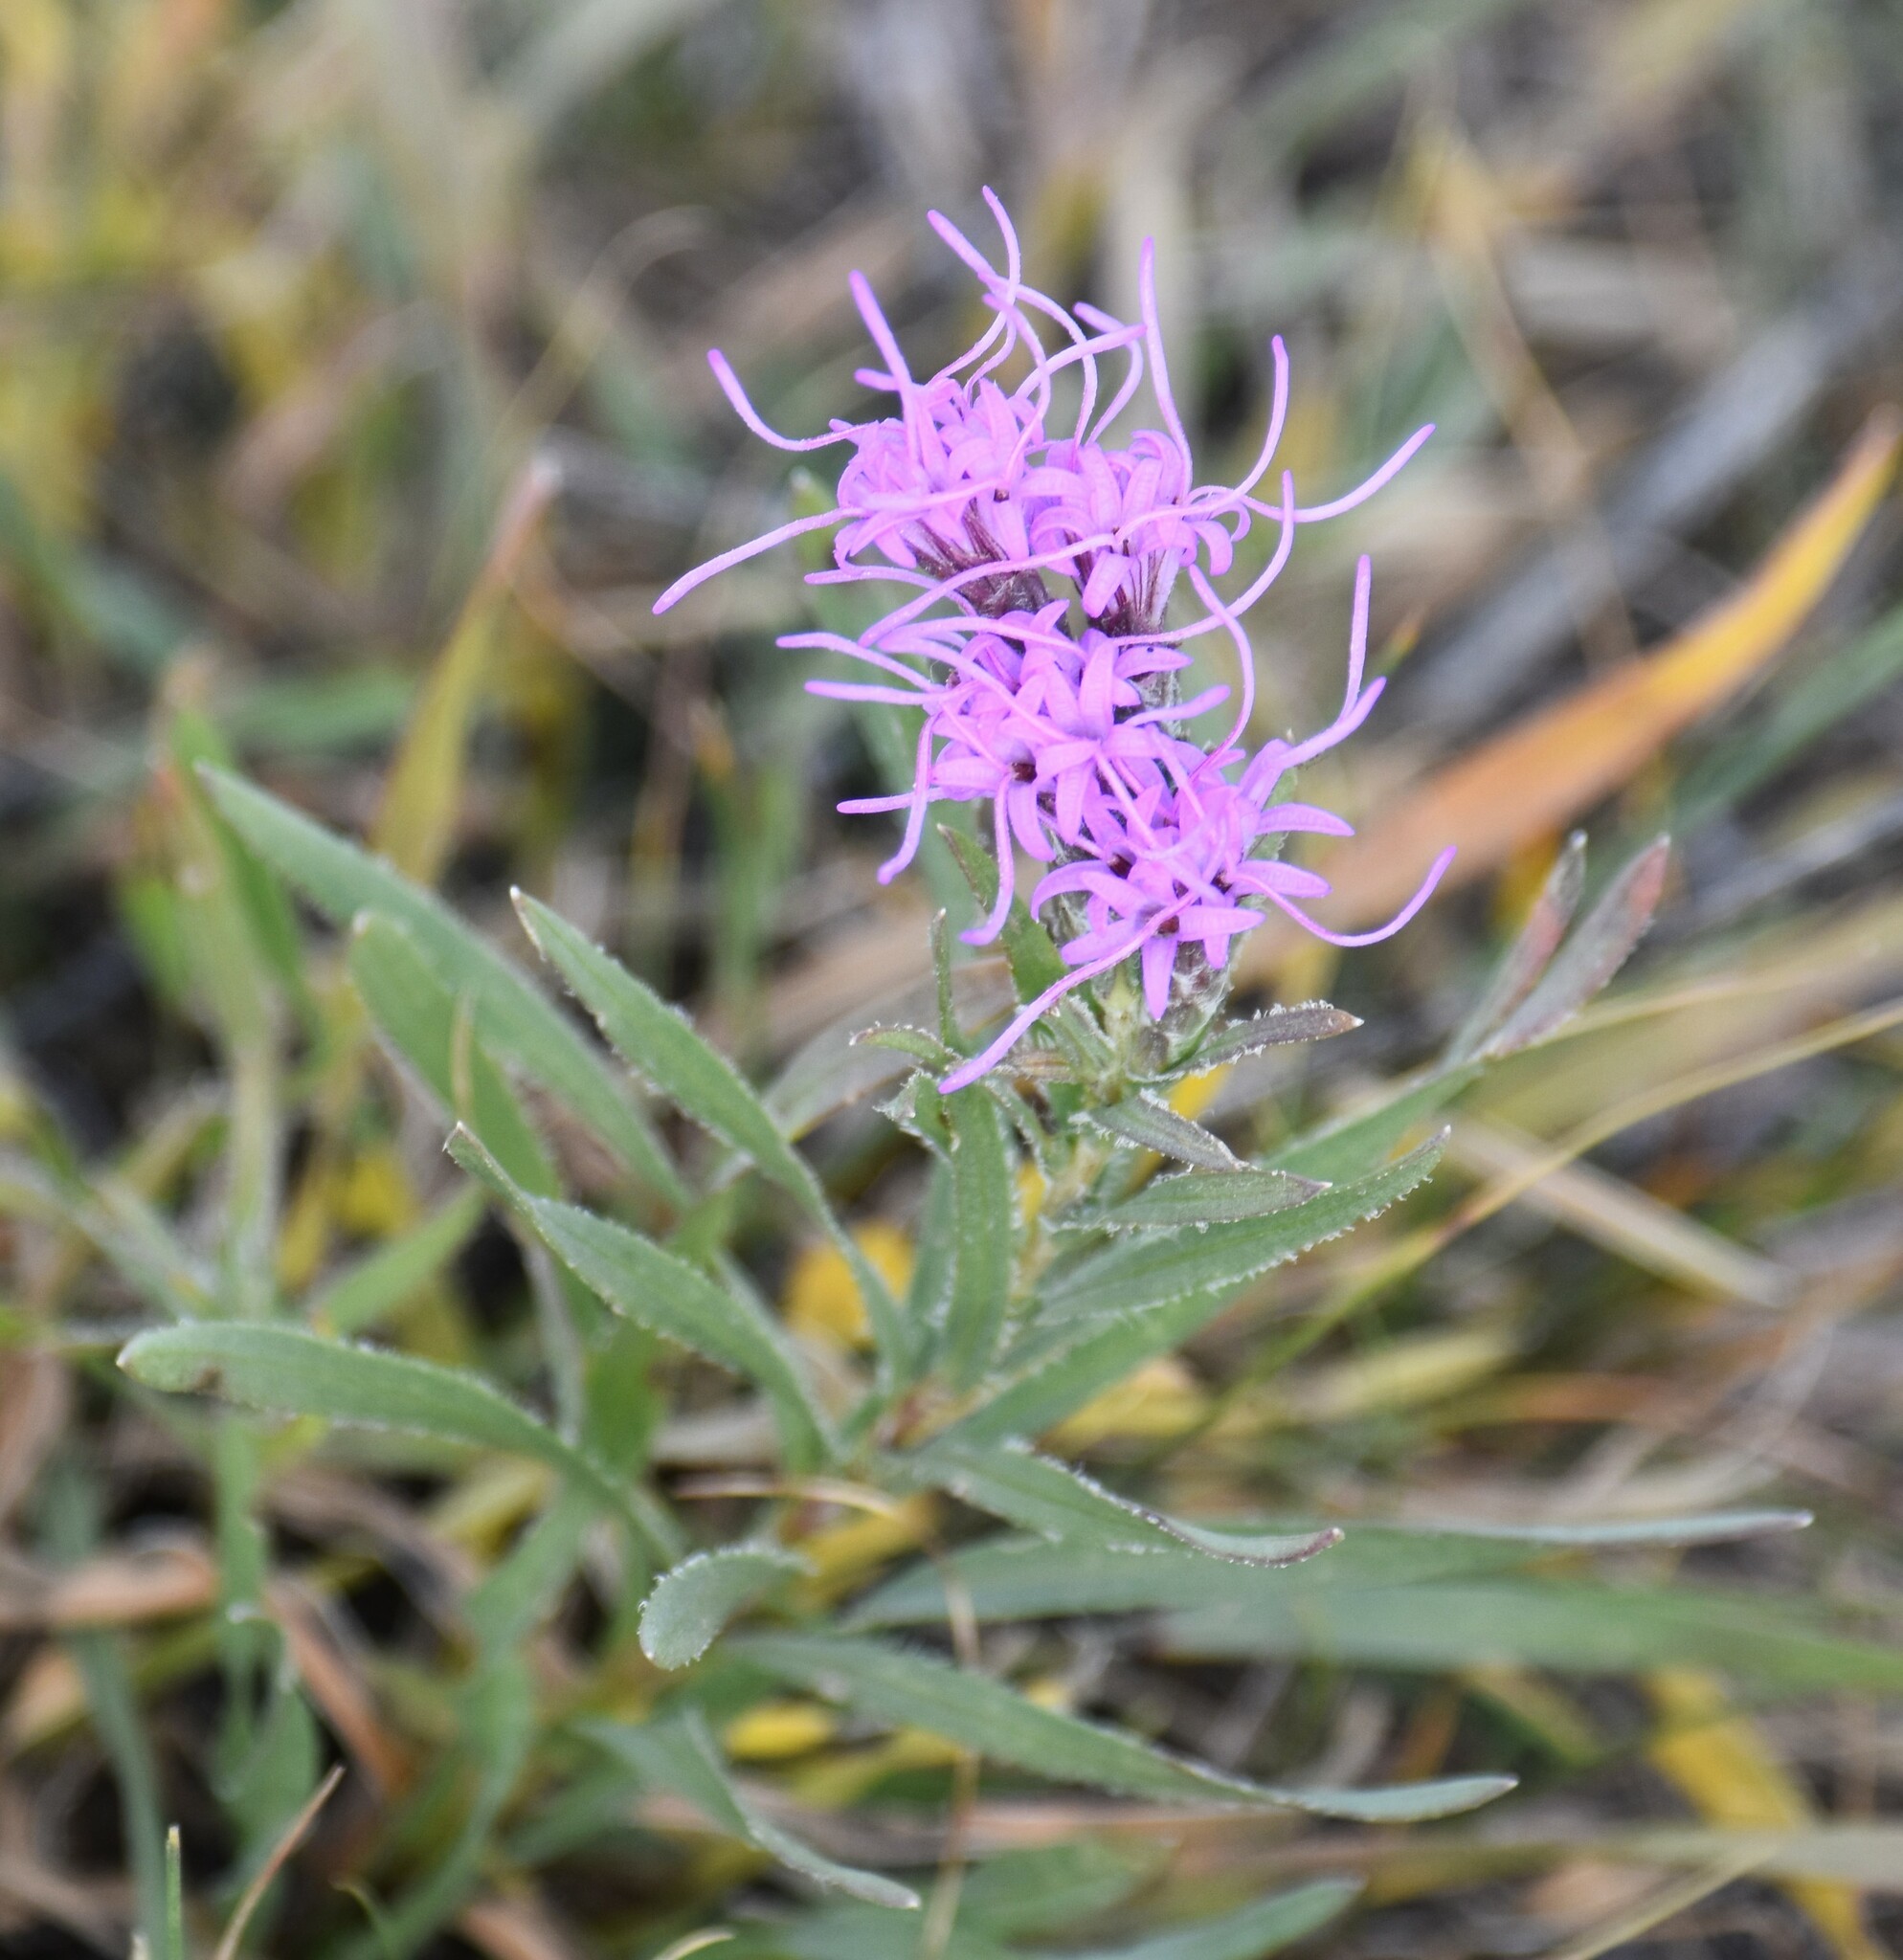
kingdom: Plantae
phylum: Tracheophyta
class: Magnoliopsida
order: Asterales
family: Asteraceae
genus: Liatris
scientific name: Liatris punctata
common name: Dotted gayfeather
